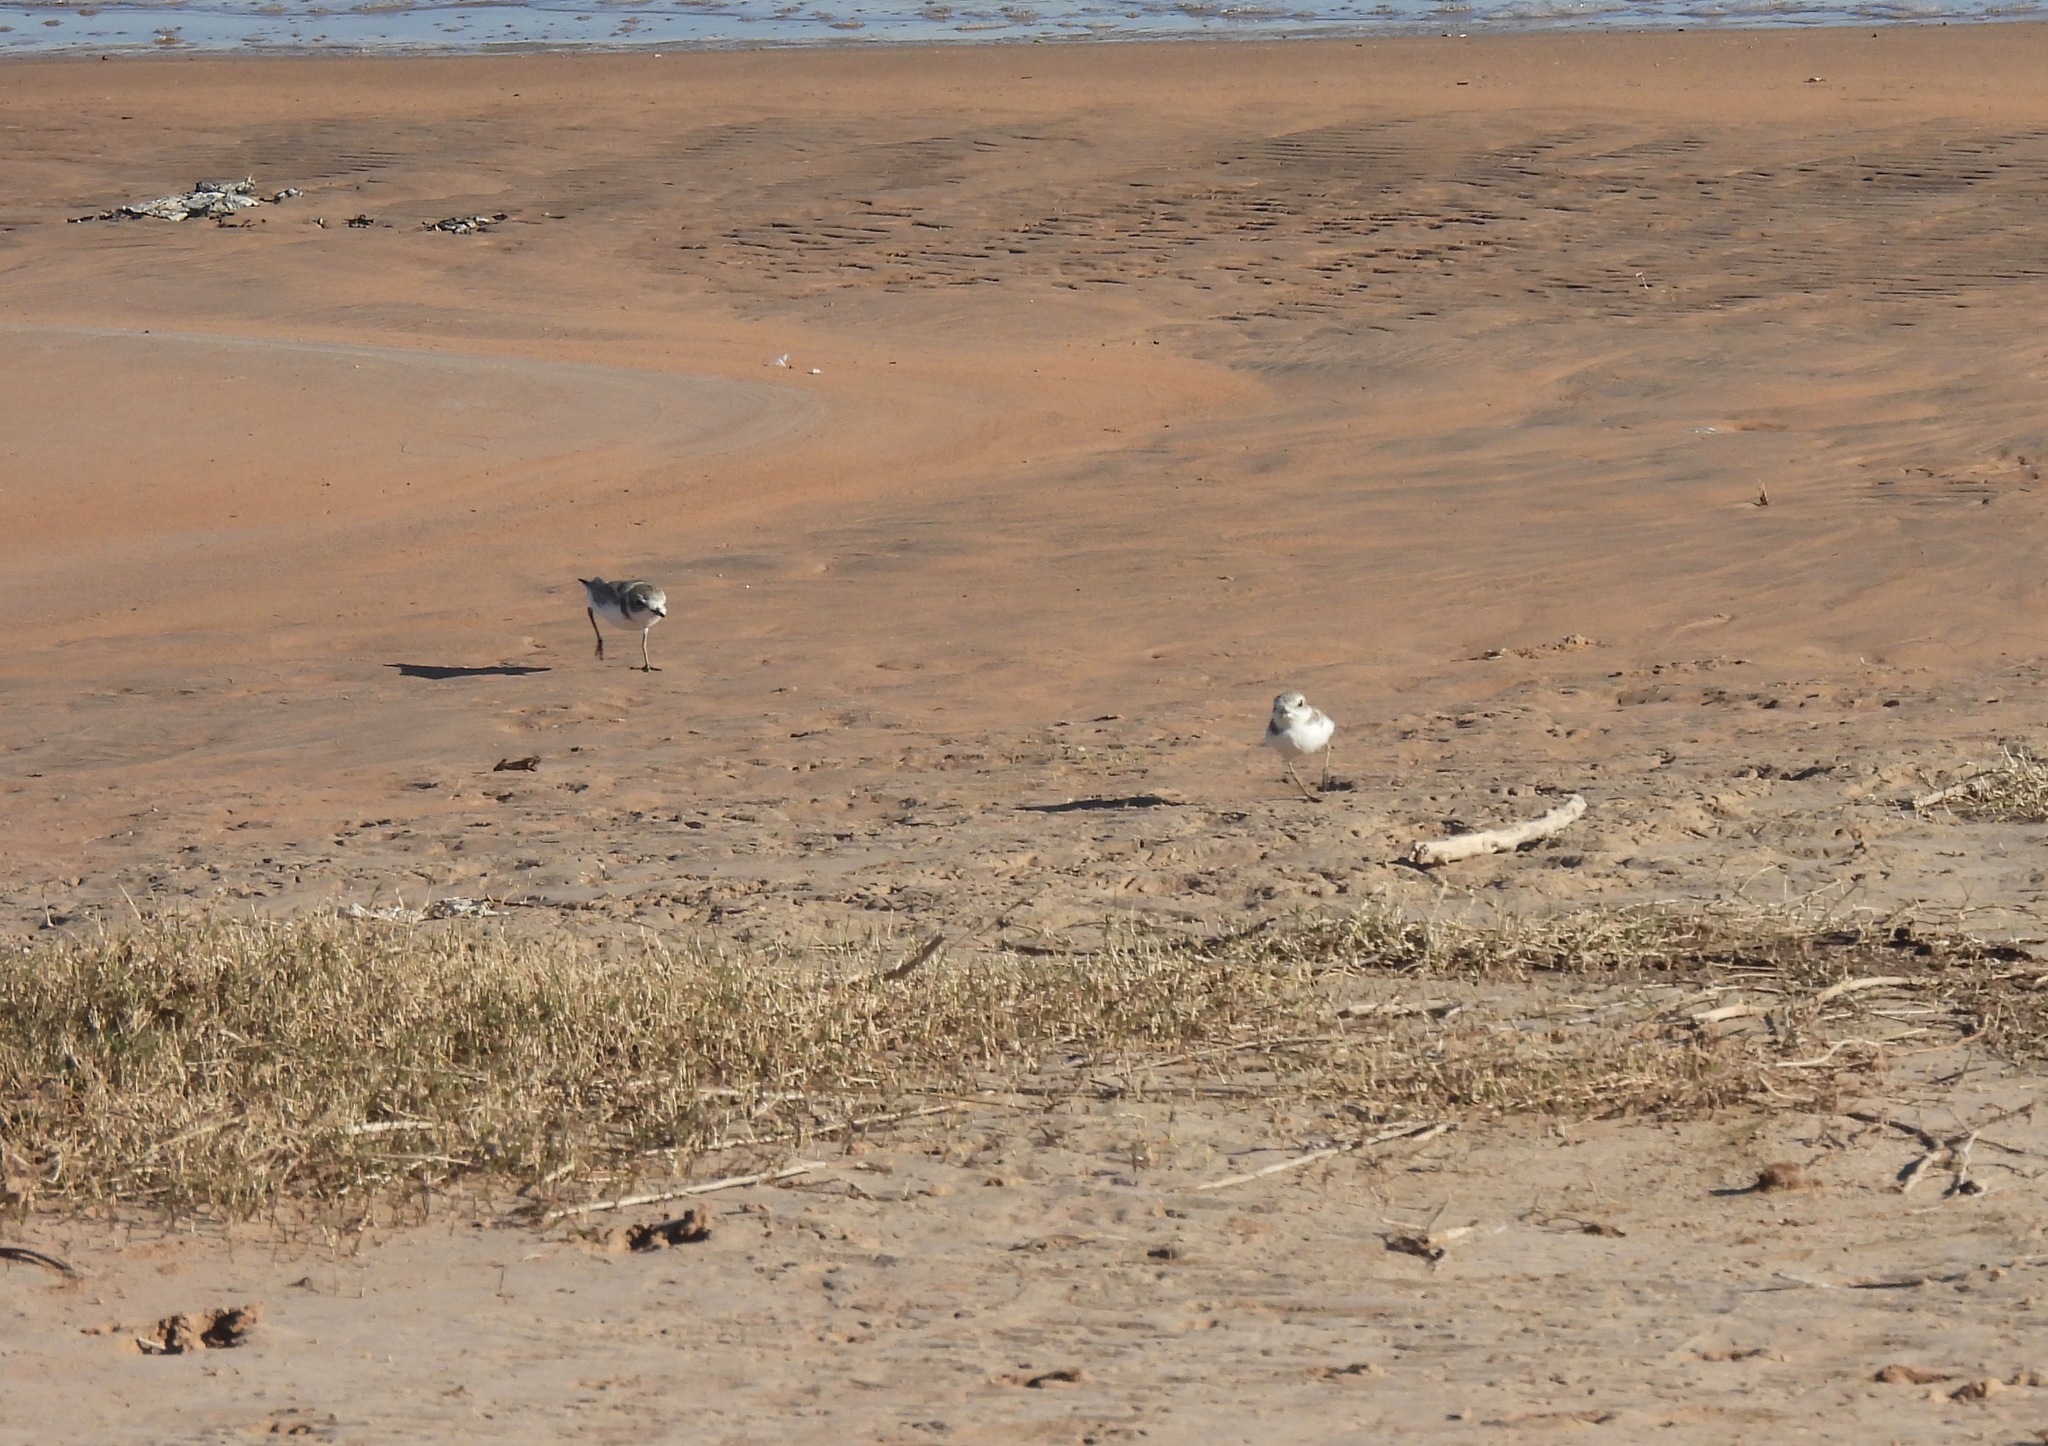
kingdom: Animalia
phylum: Chordata
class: Aves
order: Charadriiformes
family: Charadriidae
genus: Anarhynchus
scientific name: Anarhynchus
